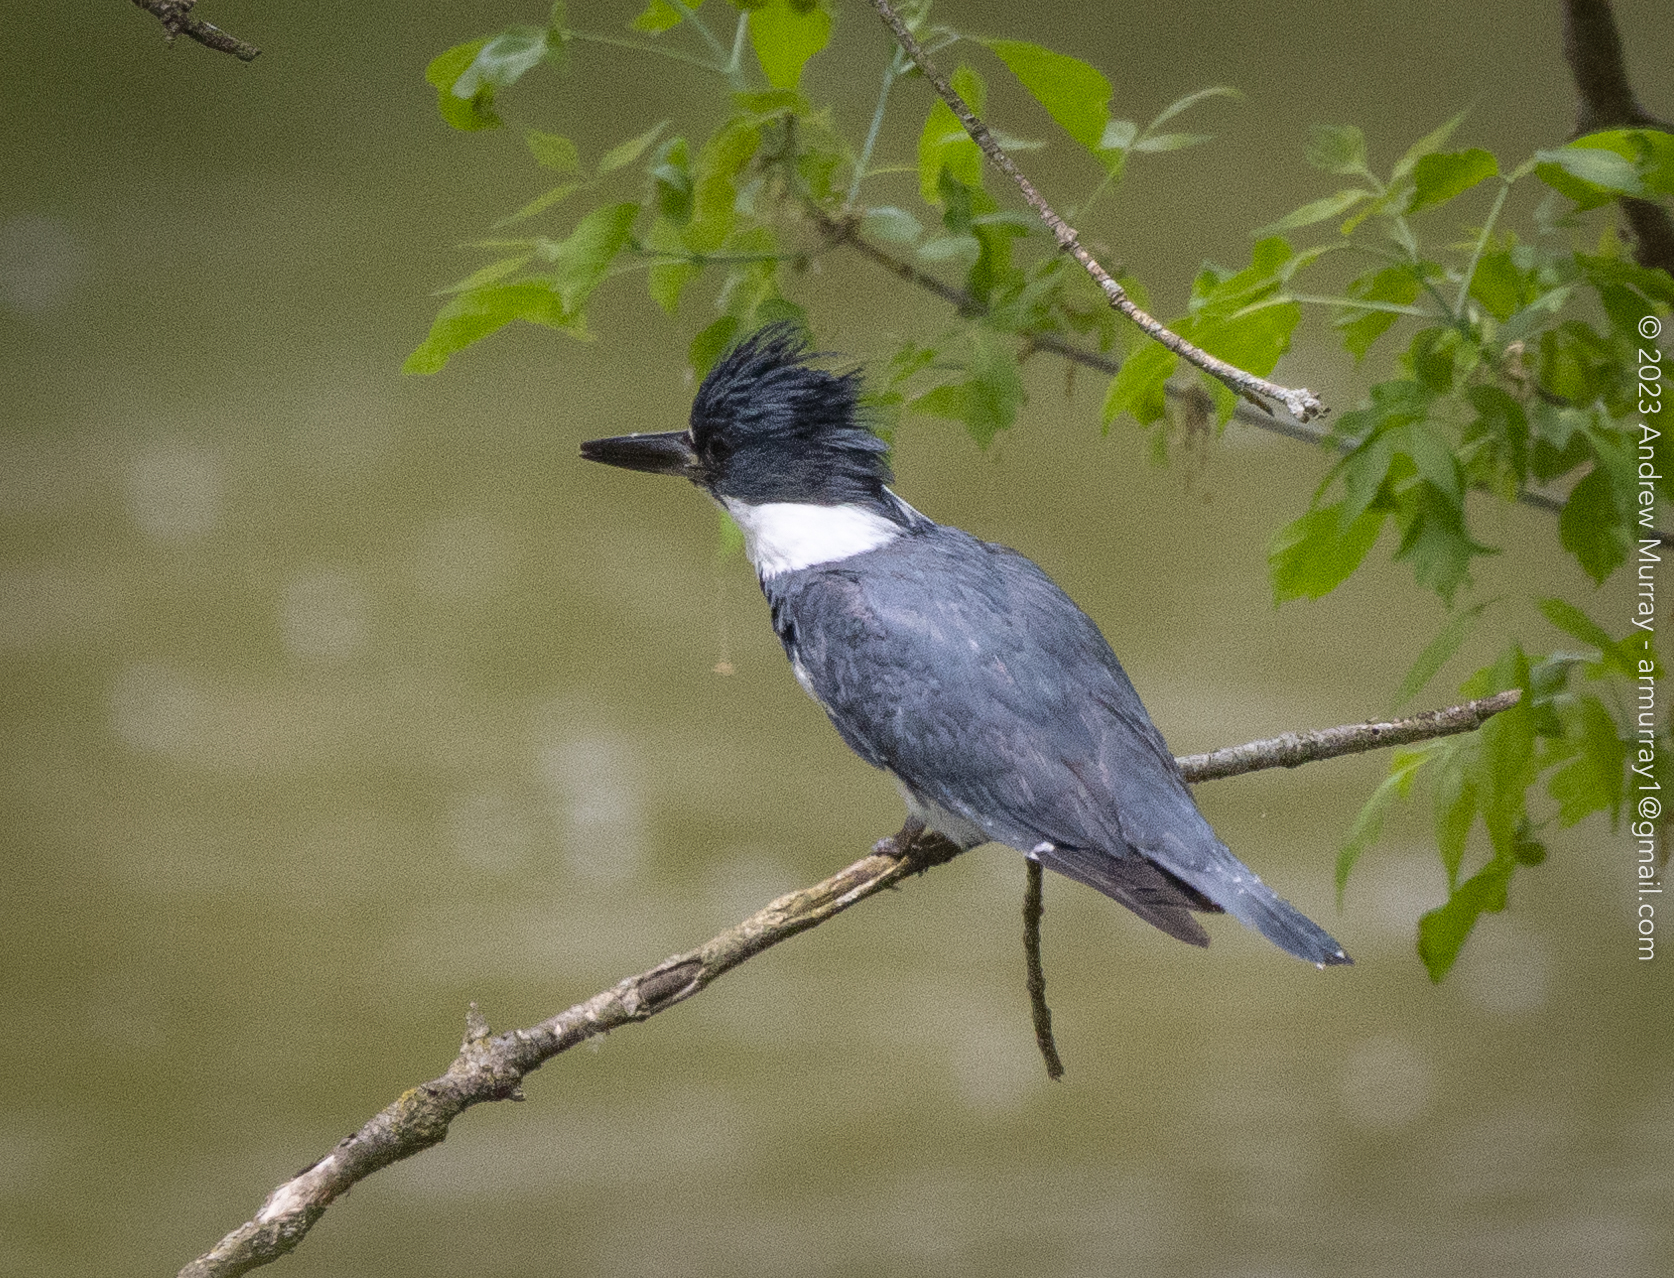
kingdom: Animalia
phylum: Chordata
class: Aves
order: Coraciiformes
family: Alcedinidae
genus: Megaceryle
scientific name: Megaceryle alcyon
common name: Belted kingfisher
